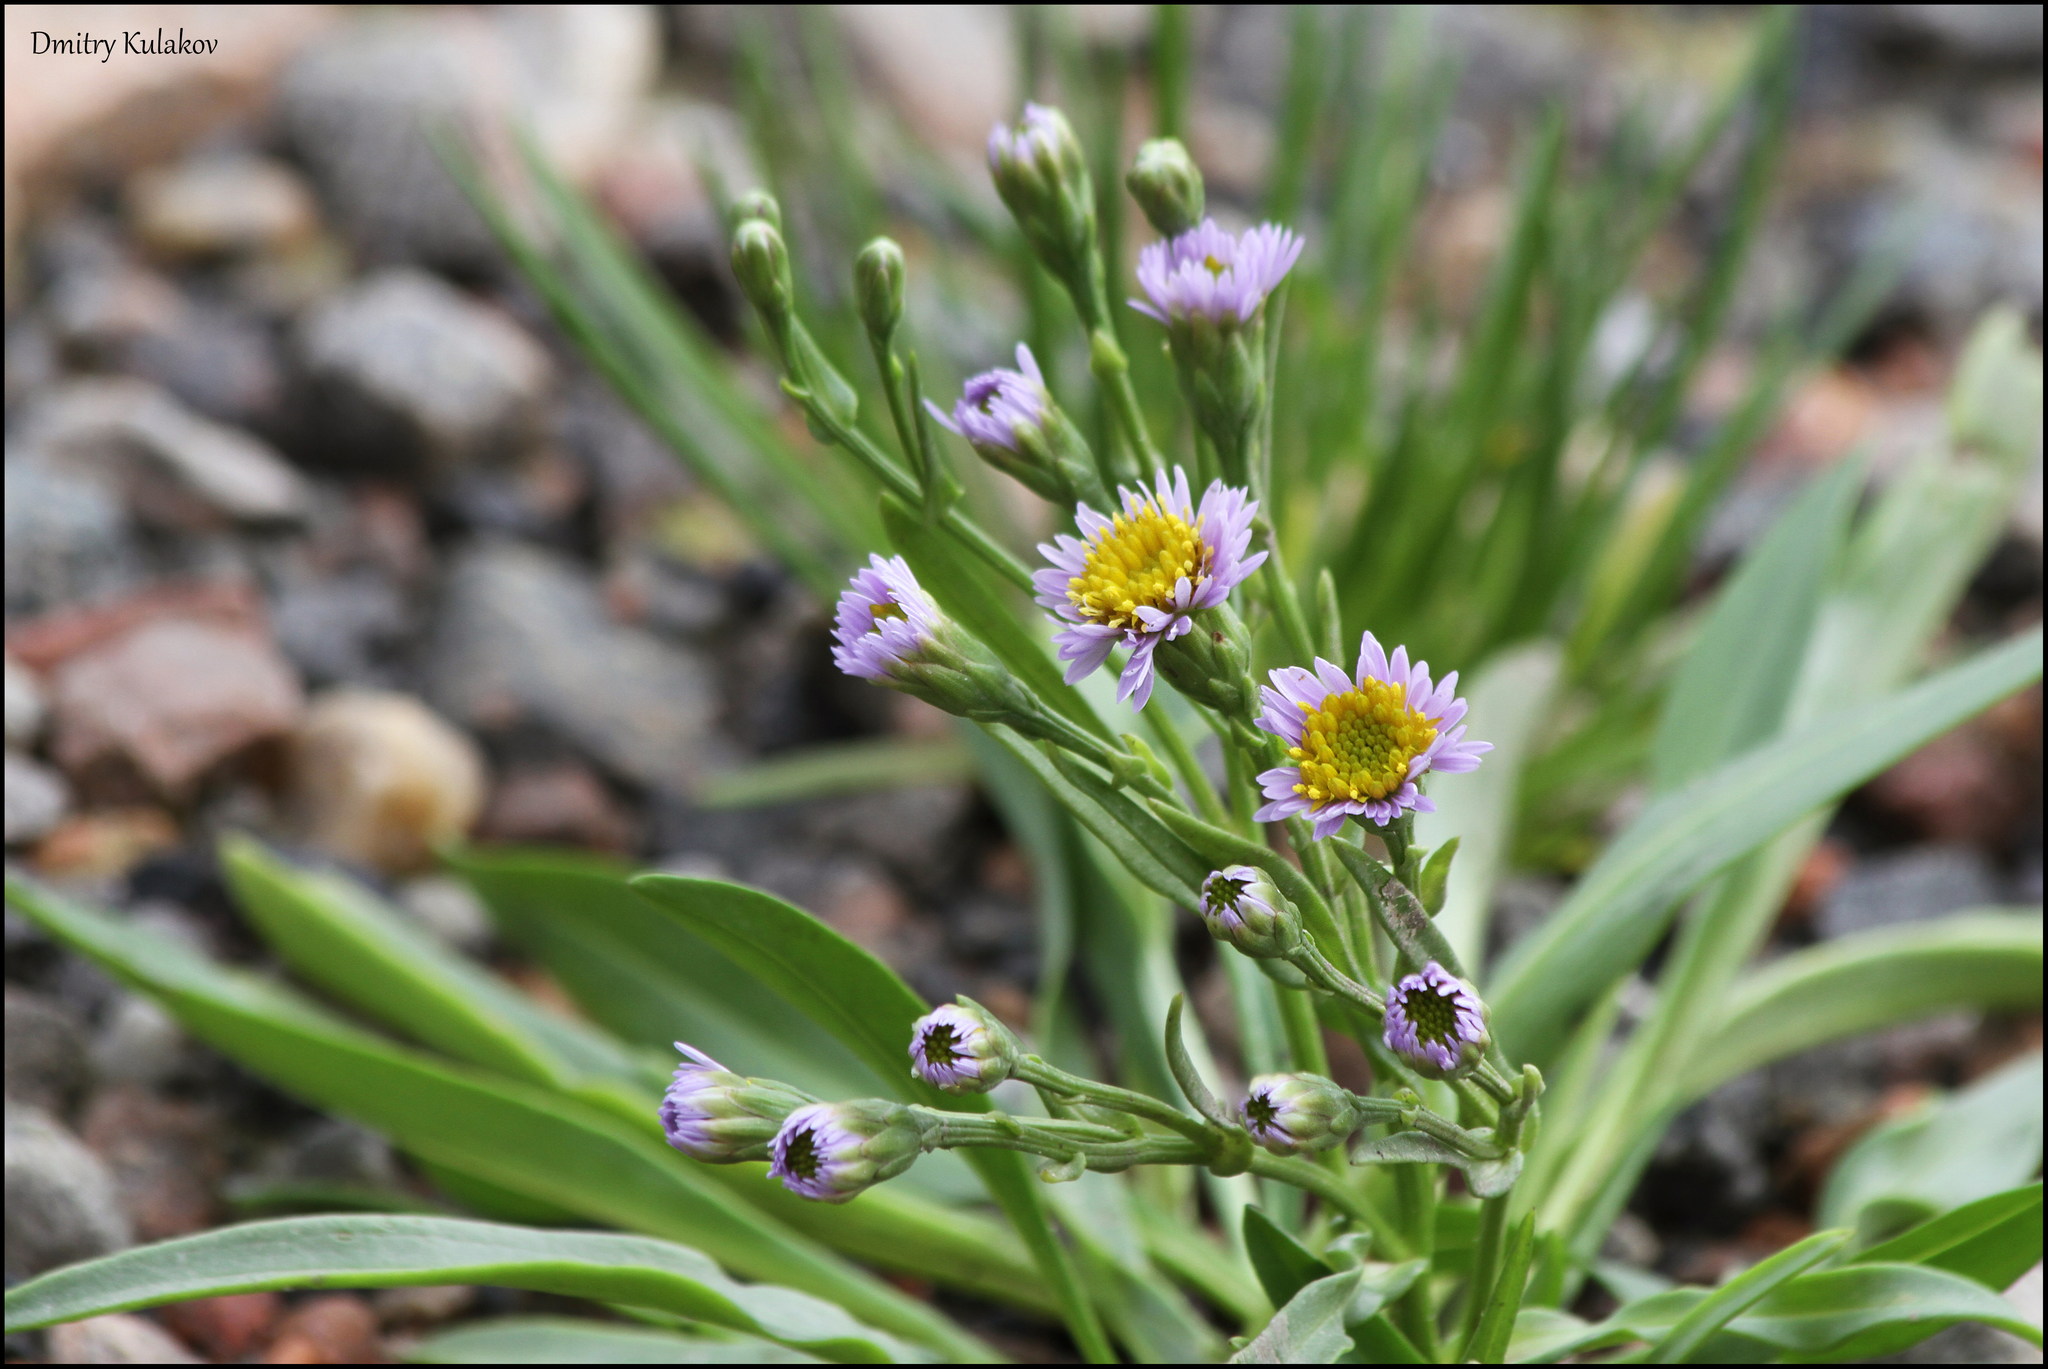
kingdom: Plantae
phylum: Tracheophyta
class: Magnoliopsida
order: Asterales
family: Asteraceae
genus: Tripolium
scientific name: Tripolium pannonicum
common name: Sea aster
